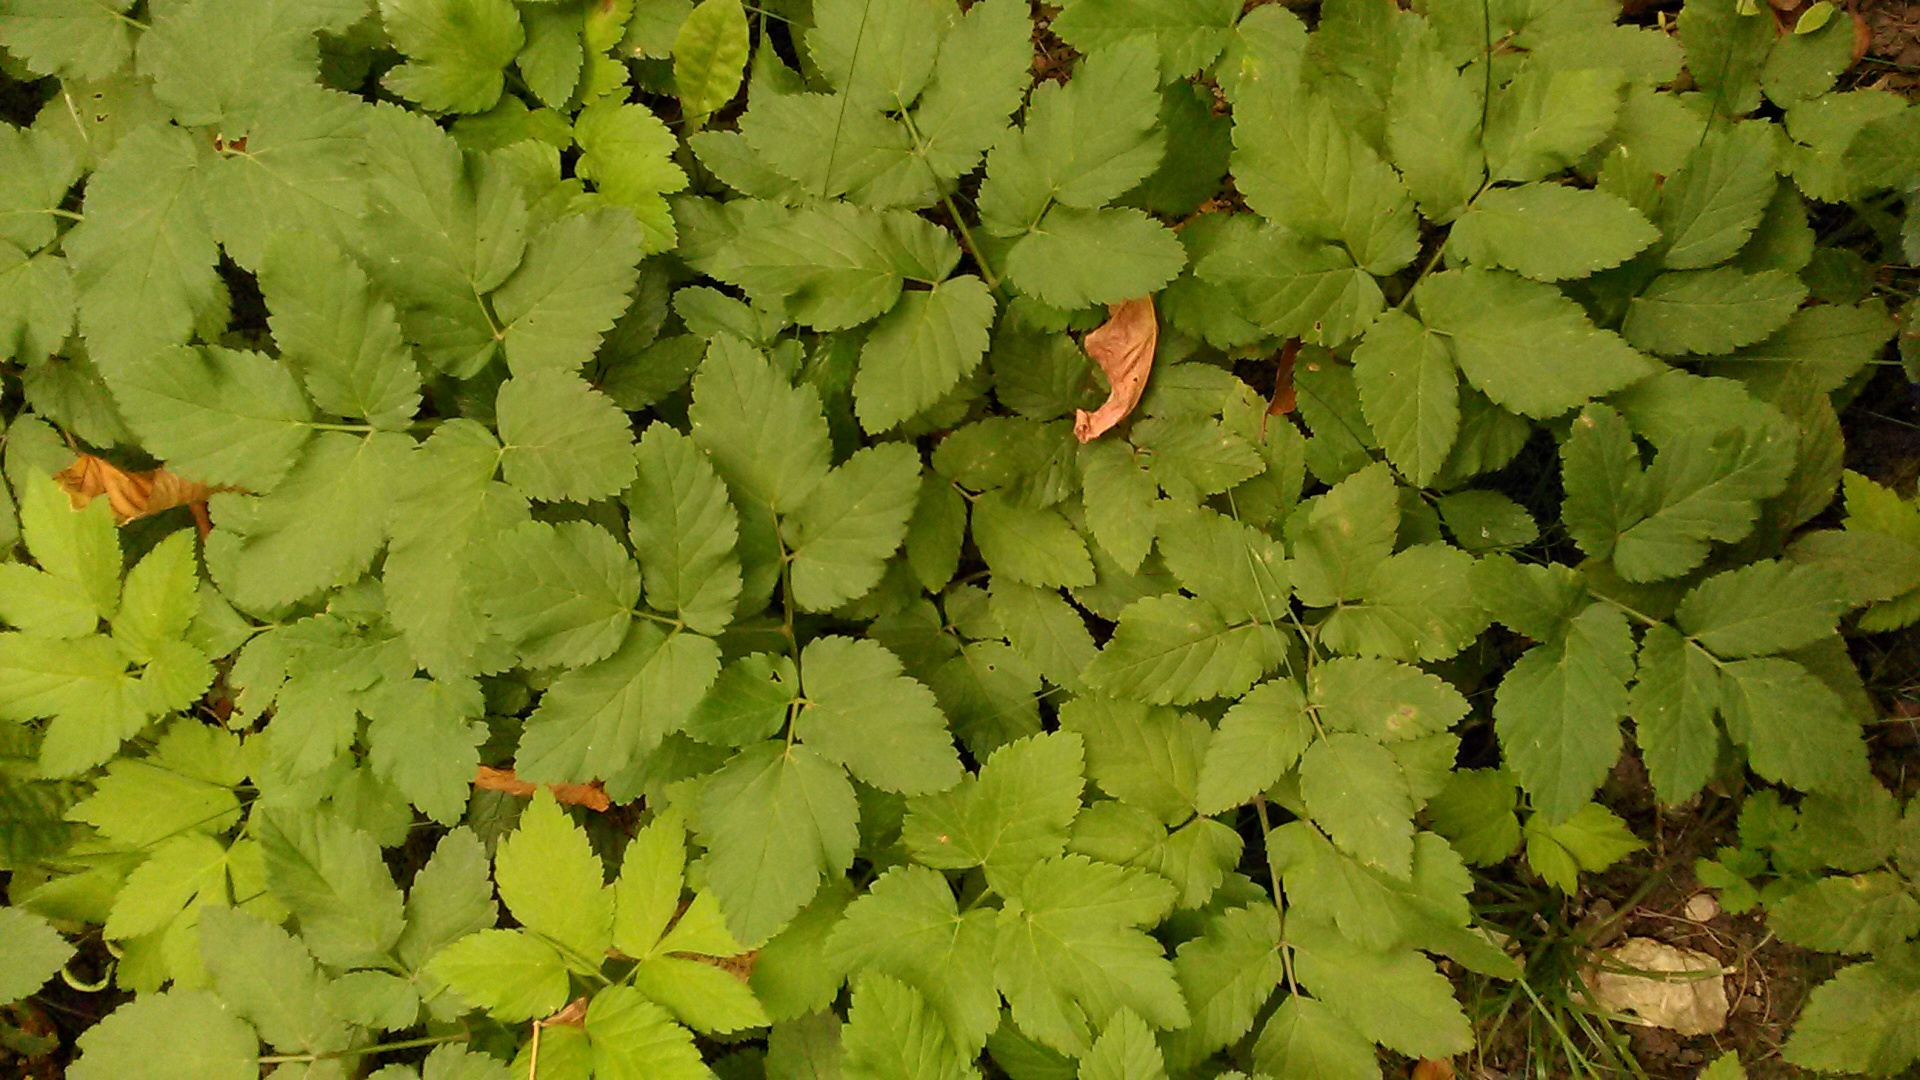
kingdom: Plantae
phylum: Tracheophyta
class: Magnoliopsida
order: Apiales
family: Apiaceae
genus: Aegopodium
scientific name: Aegopodium podagraria
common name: Ground-elder
